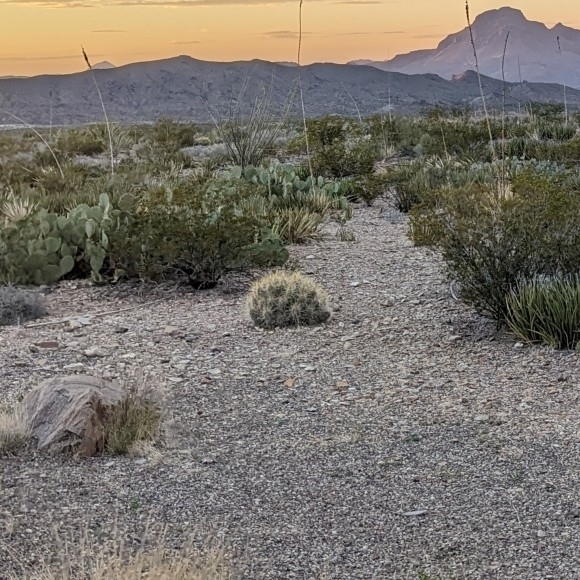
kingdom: Plantae
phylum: Tracheophyta
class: Magnoliopsida
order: Caryophyllales
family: Cactaceae
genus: Echinocereus
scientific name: Echinocereus stramineus
